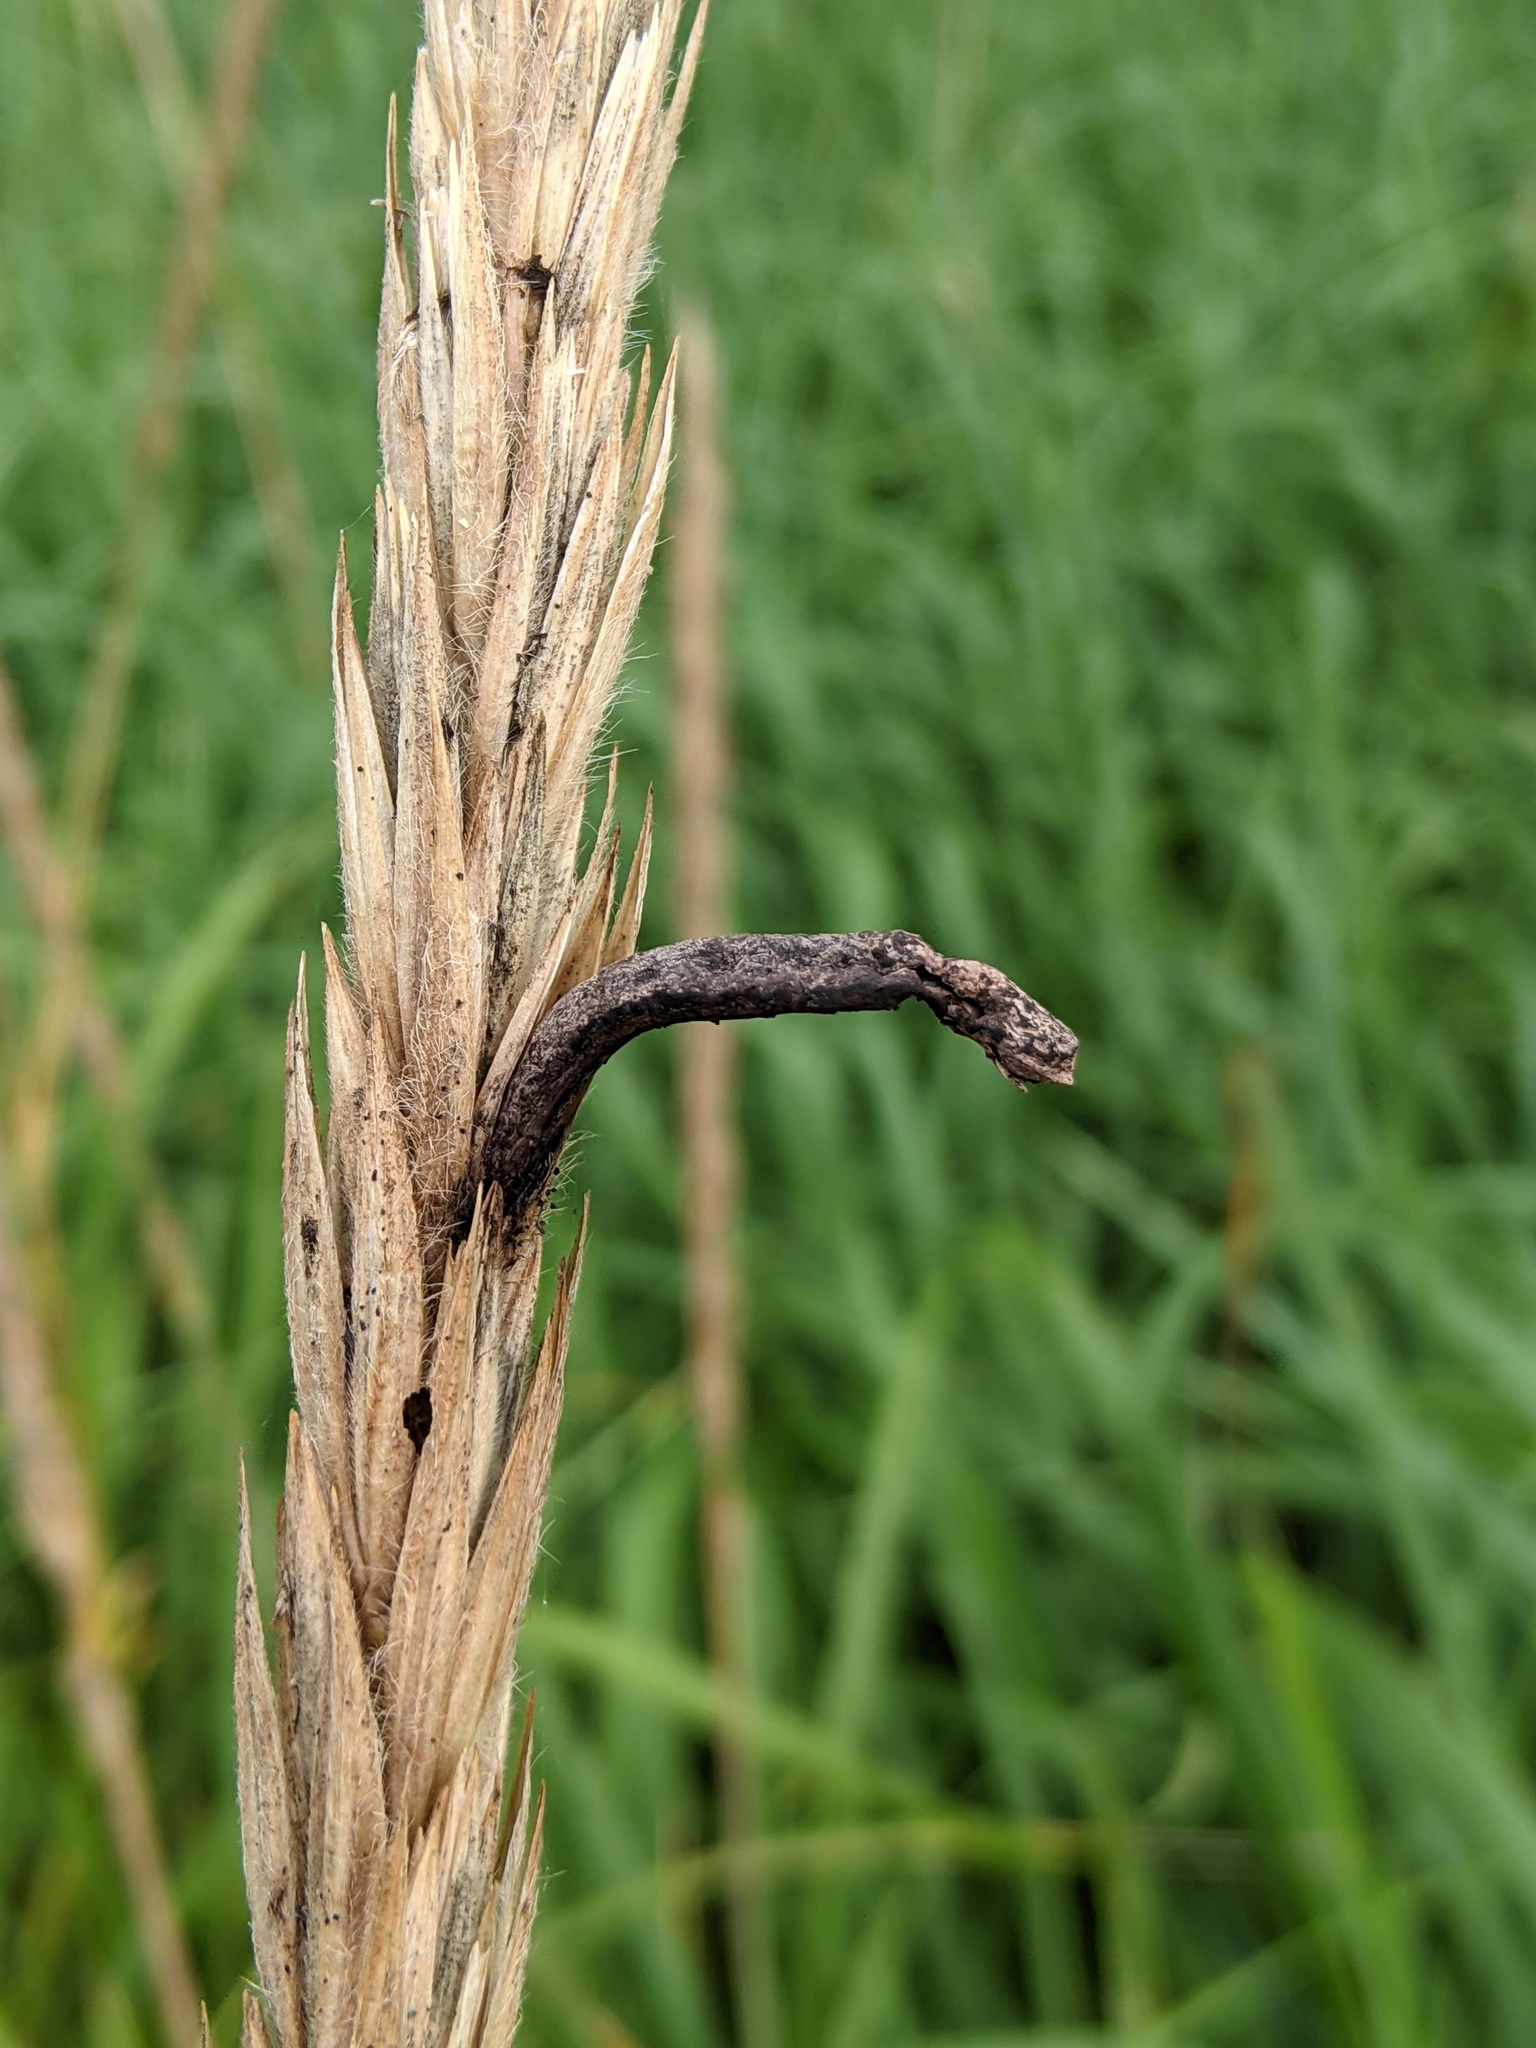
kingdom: Fungi
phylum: Ascomycota
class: Sordariomycetes
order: Hypocreales
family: Clavicipitaceae
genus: Claviceps
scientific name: Claviceps purpurea
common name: Rye ergot
